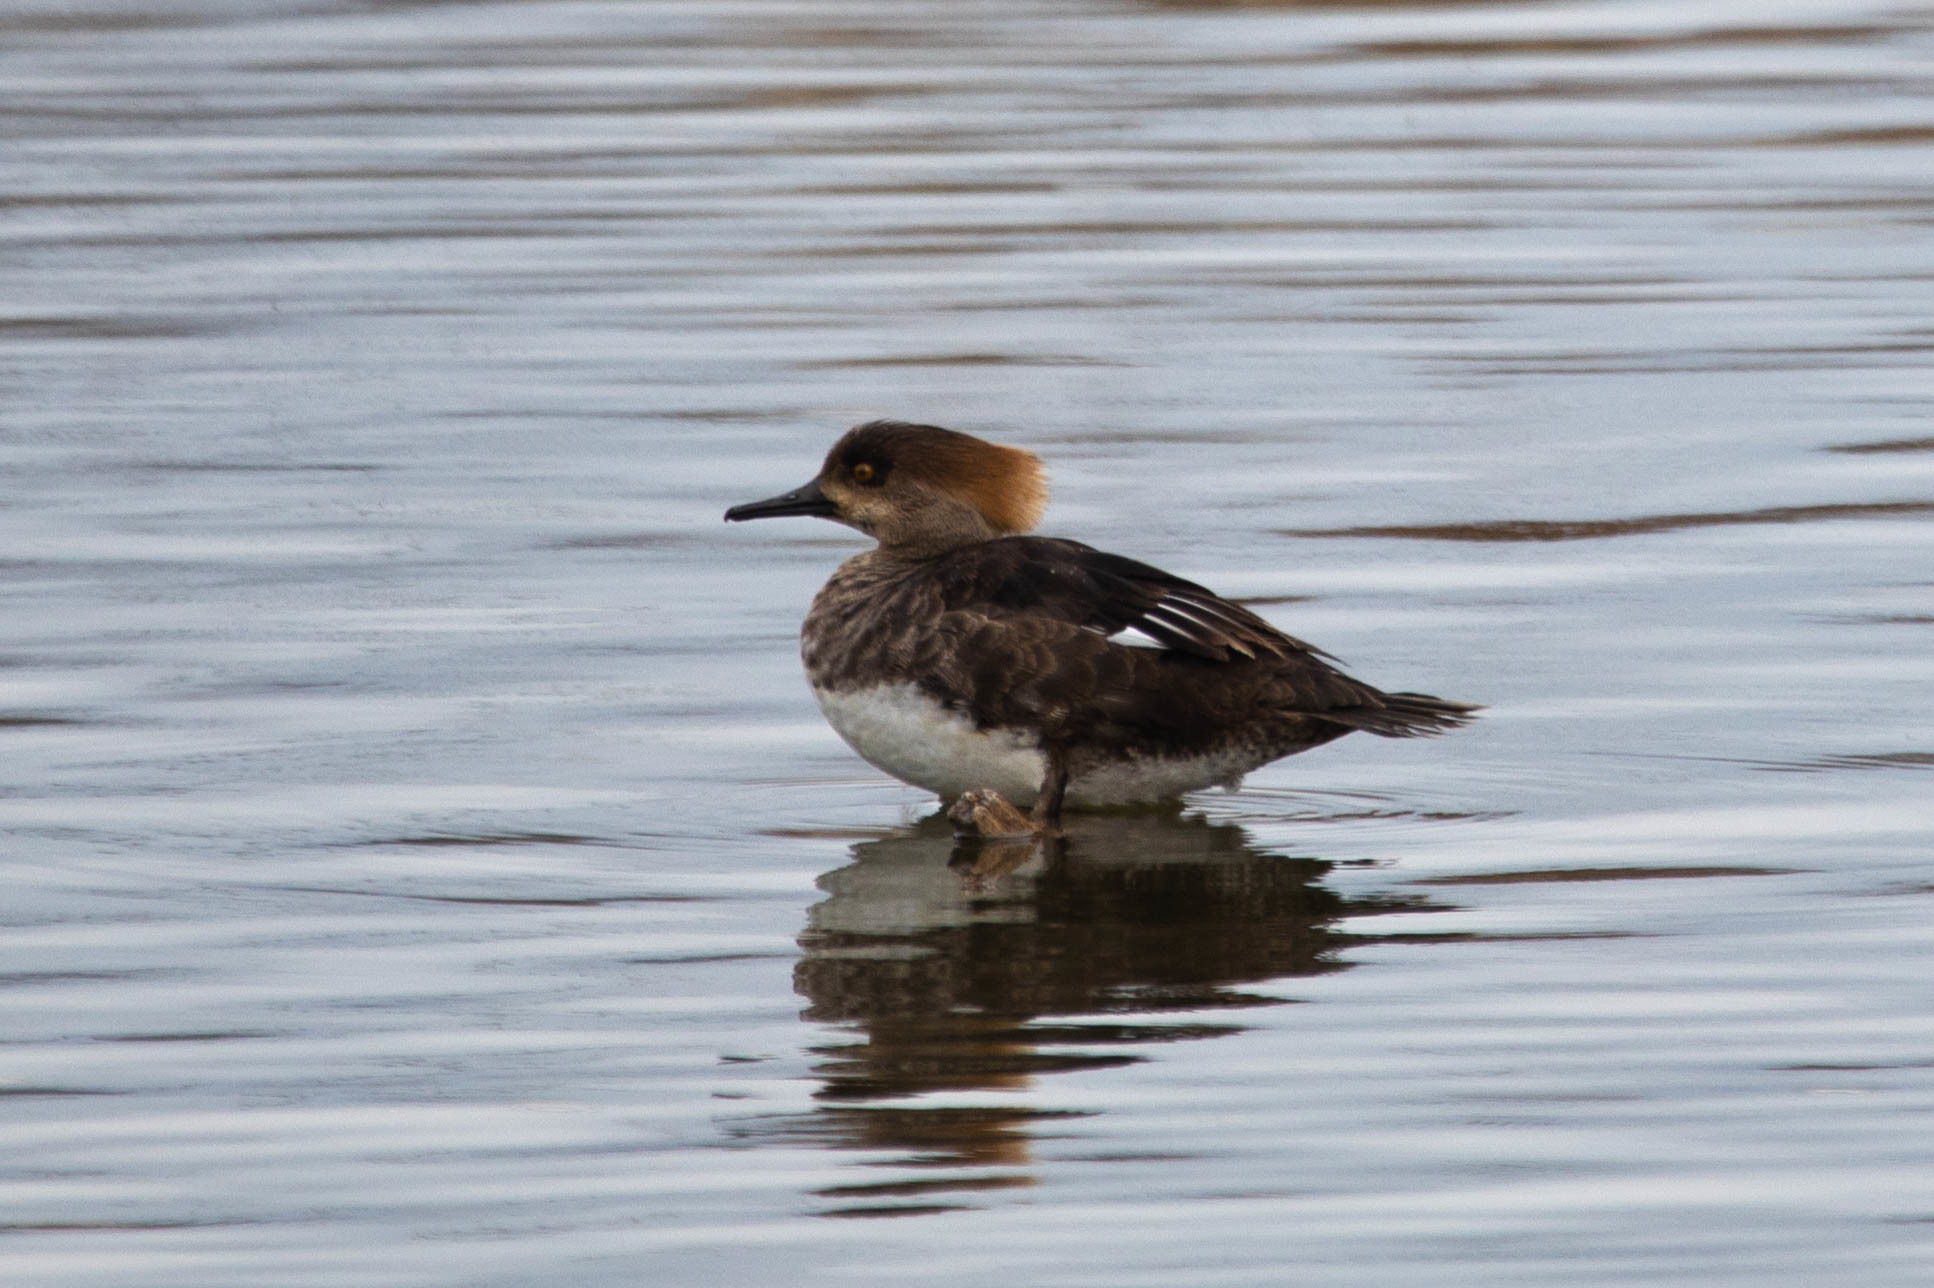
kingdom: Animalia
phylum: Chordata
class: Aves
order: Anseriformes
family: Anatidae
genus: Lophodytes
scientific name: Lophodytes cucullatus
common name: Hooded merganser
